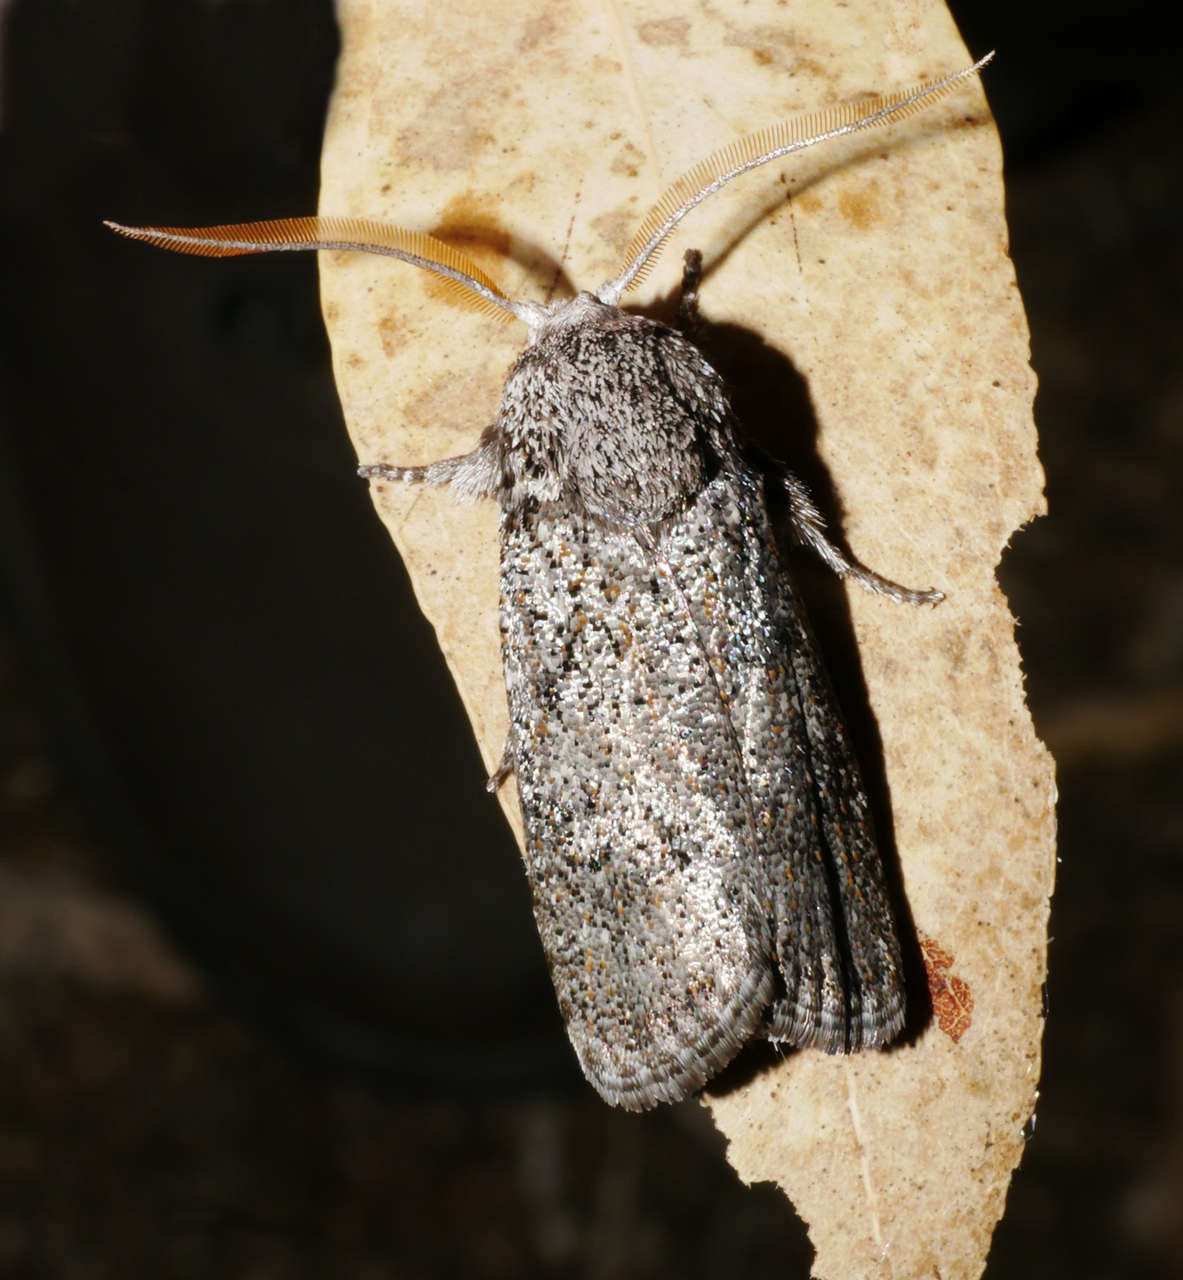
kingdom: Animalia
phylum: Arthropoda
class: Insecta
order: Lepidoptera
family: Xyloryctidae
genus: Cryptophasa
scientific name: Cryptophasa irrorata
